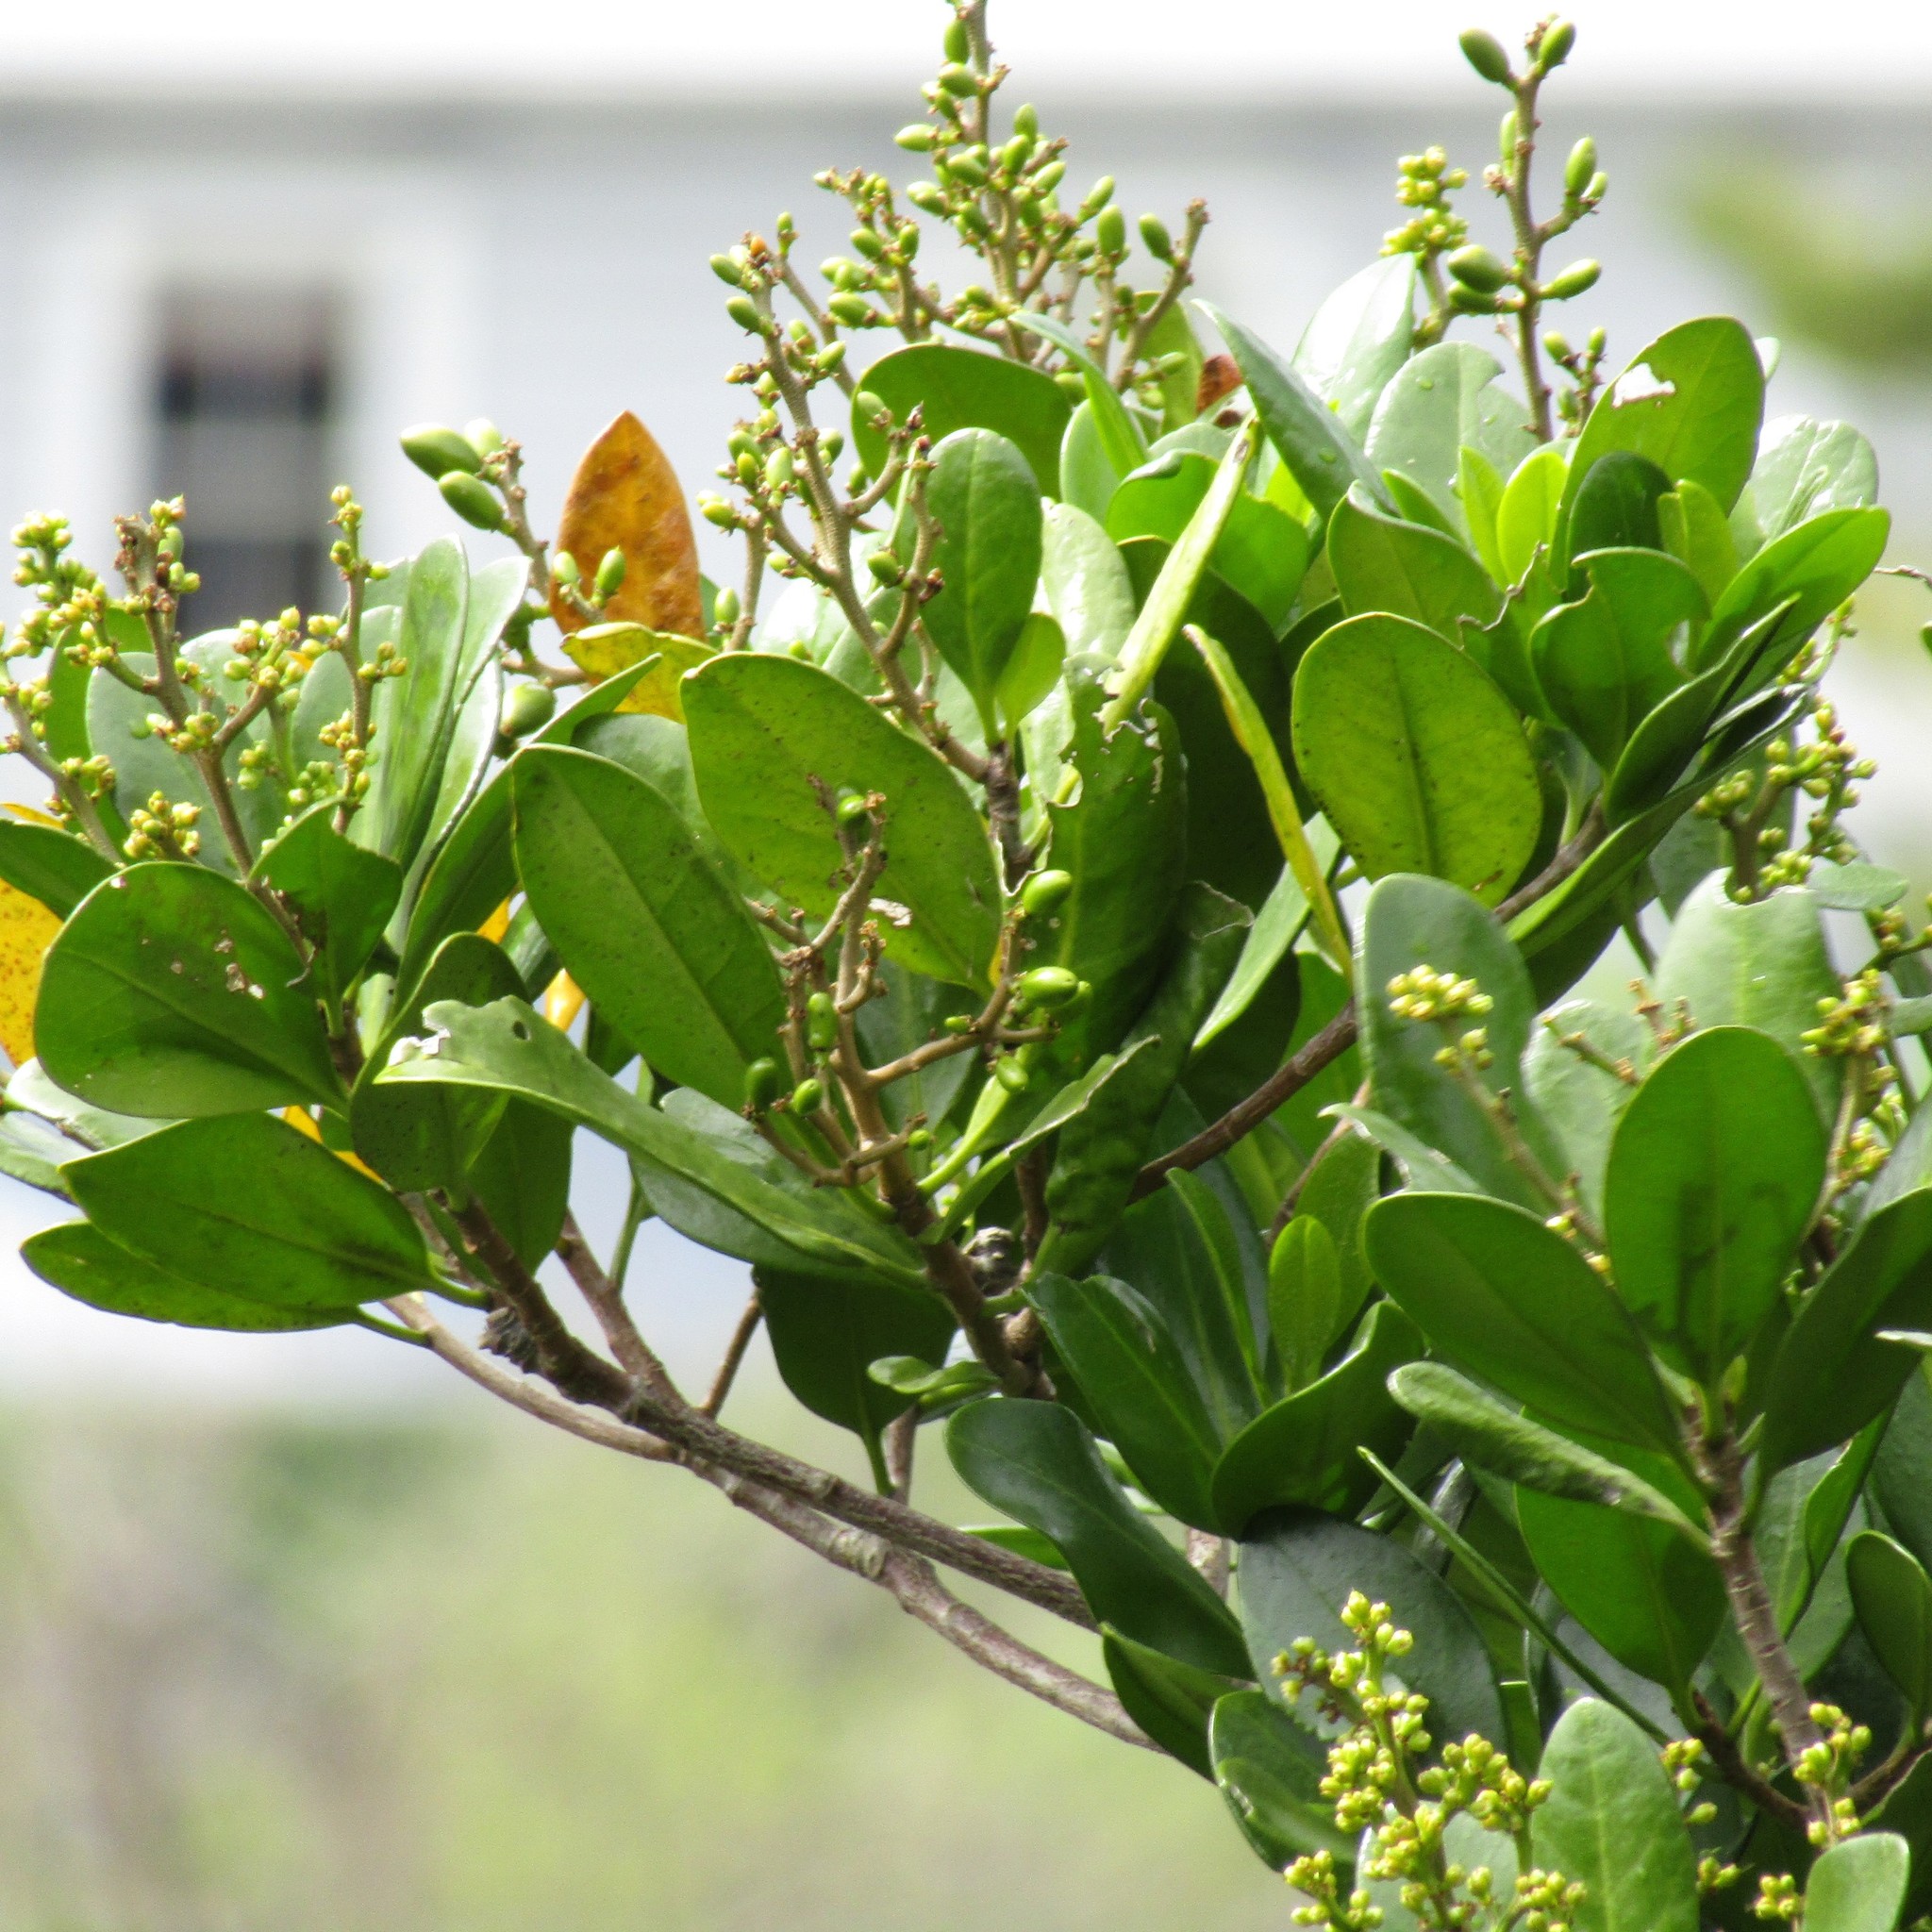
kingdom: Plantae
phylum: Tracheophyta
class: Magnoliopsida
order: Cucurbitales
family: Corynocarpaceae
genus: Corynocarpus
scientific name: Corynocarpus laevigatus
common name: New zealand laurel
